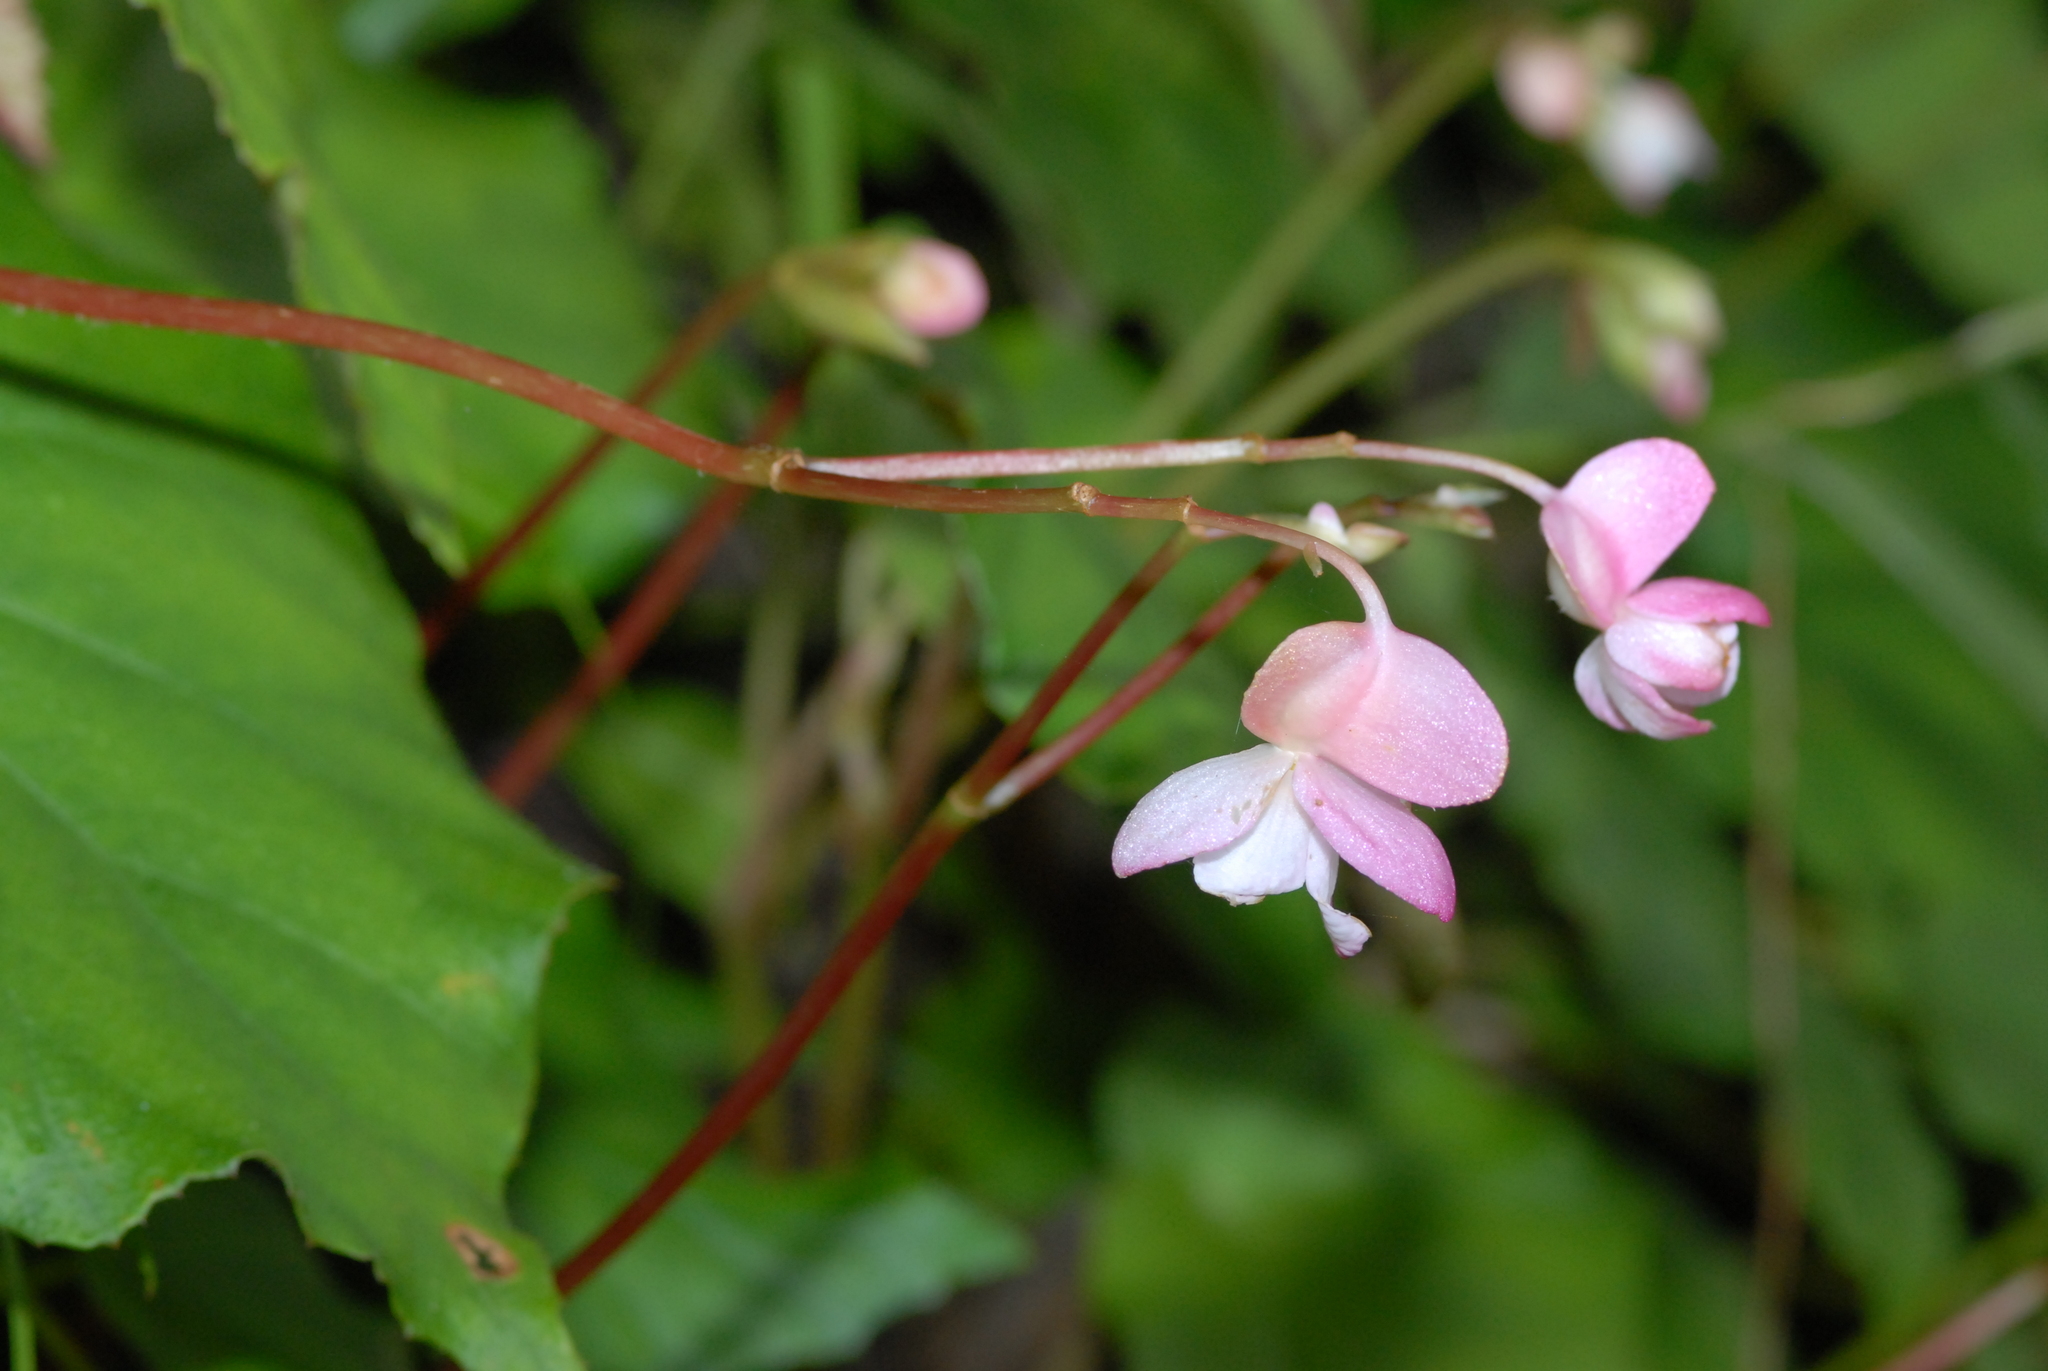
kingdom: Plantae
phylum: Tracheophyta
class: Magnoliopsida
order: Cucurbitales
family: Begoniaceae
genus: Begonia
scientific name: Begonia chitoensis
